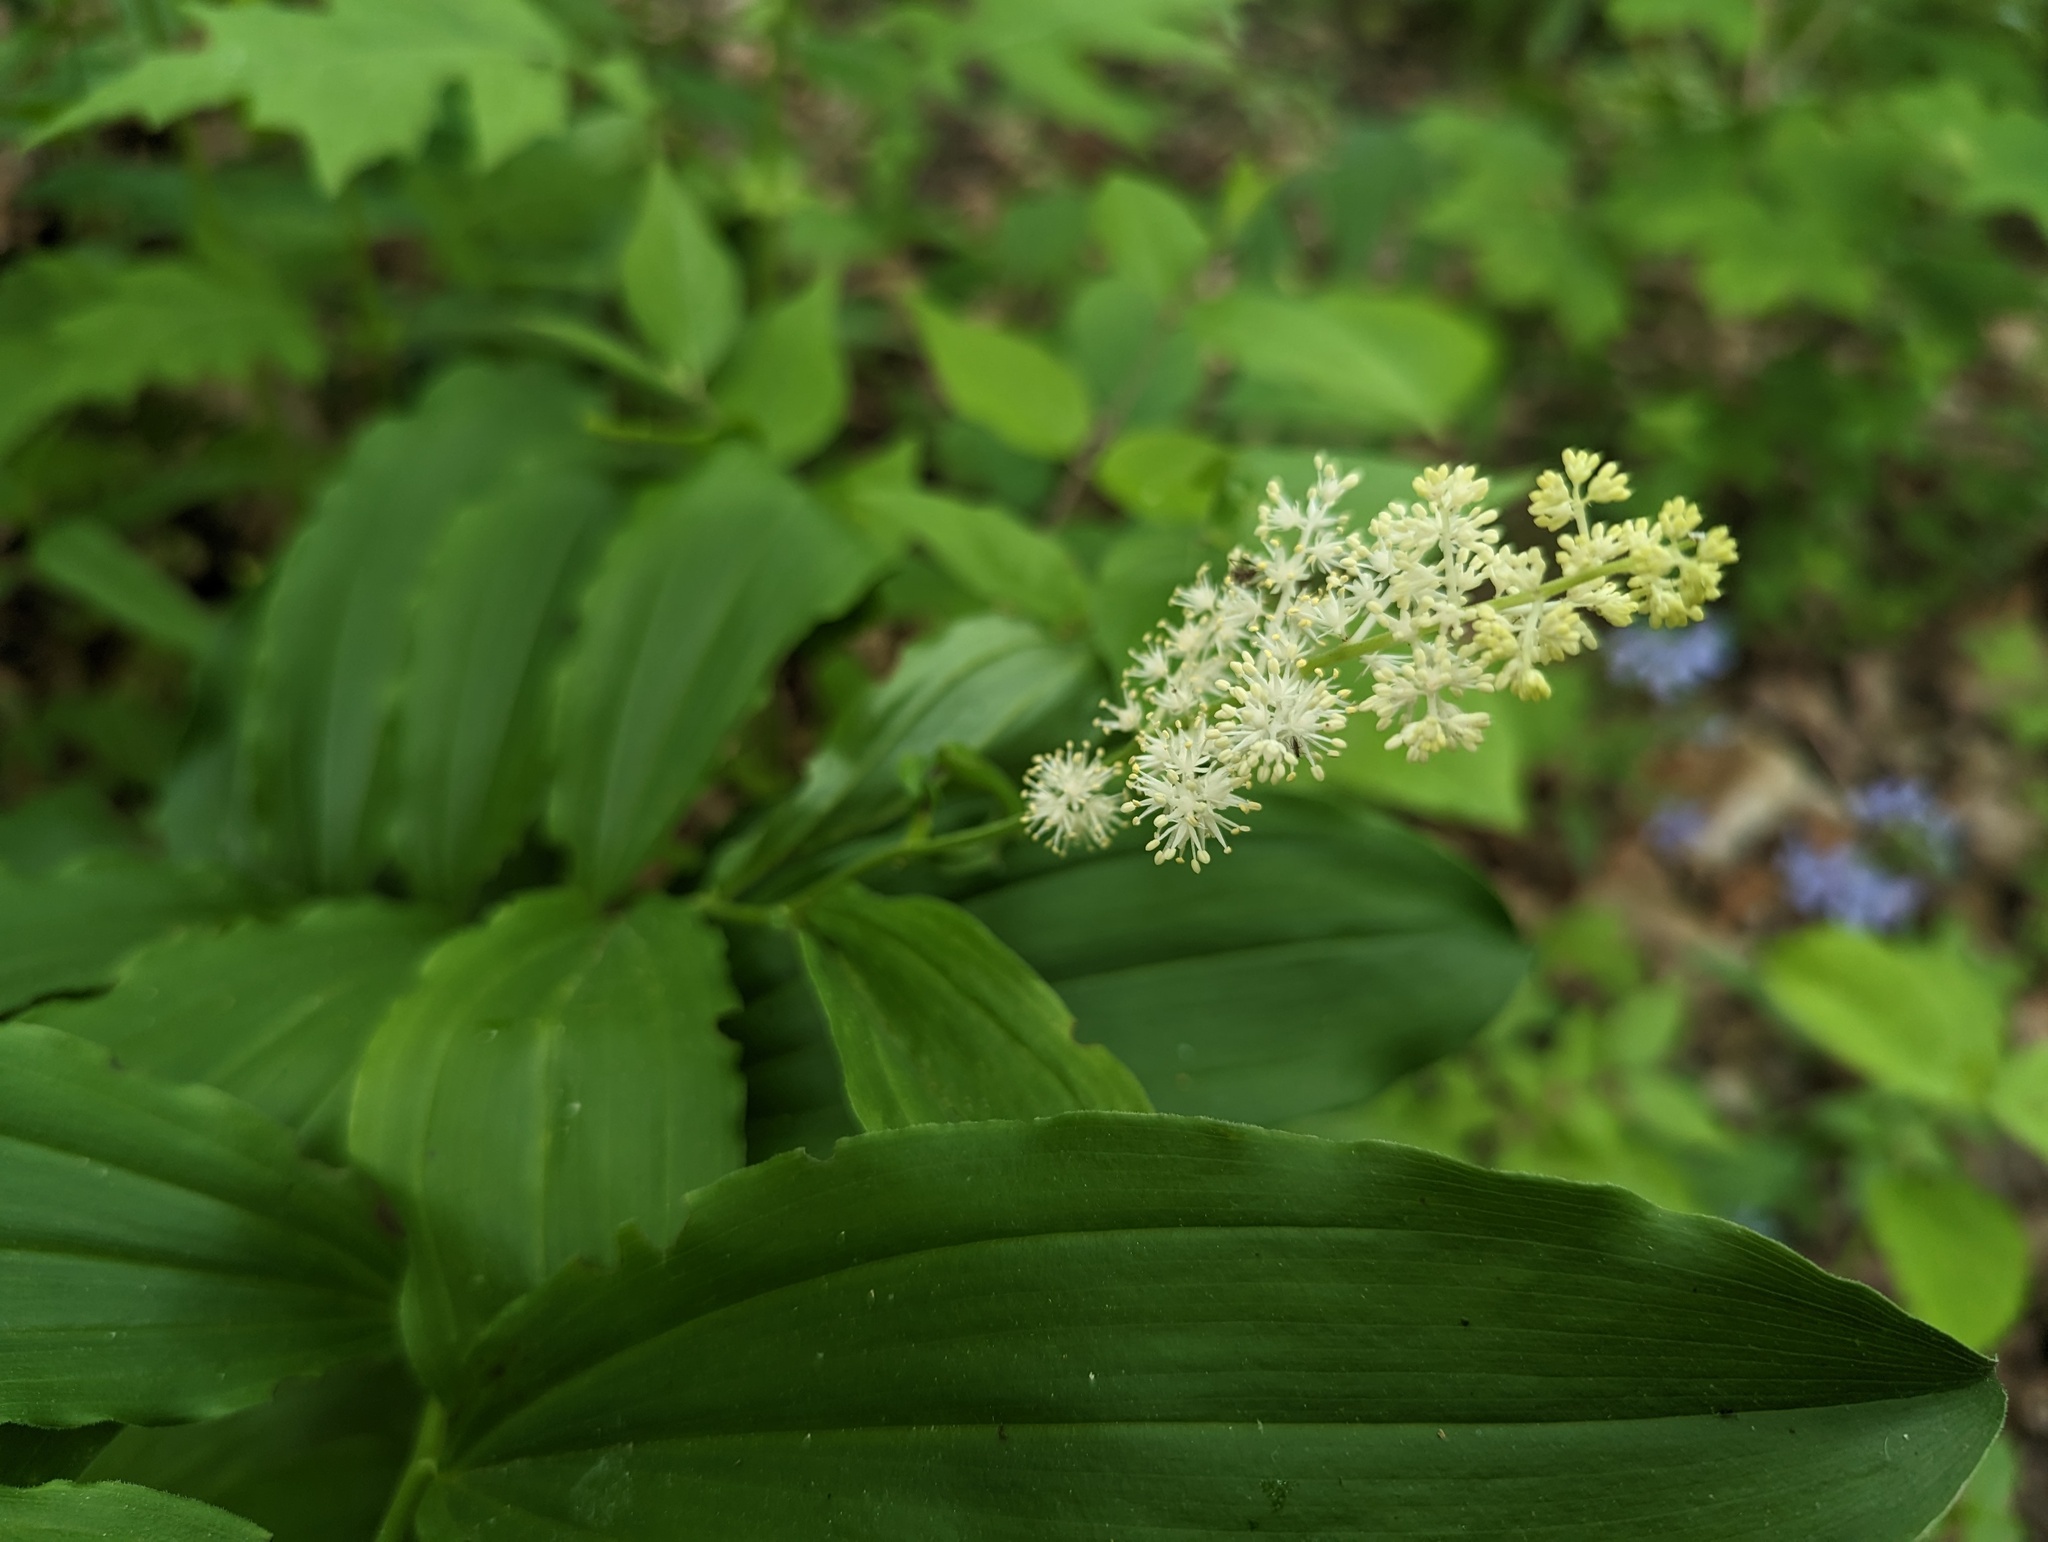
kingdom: Plantae
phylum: Tracheophyta
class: Liliopsida
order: Asparagales
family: Asparagaceae
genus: Maianthemum
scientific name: Maianthemum racemosum
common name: False spikenard
